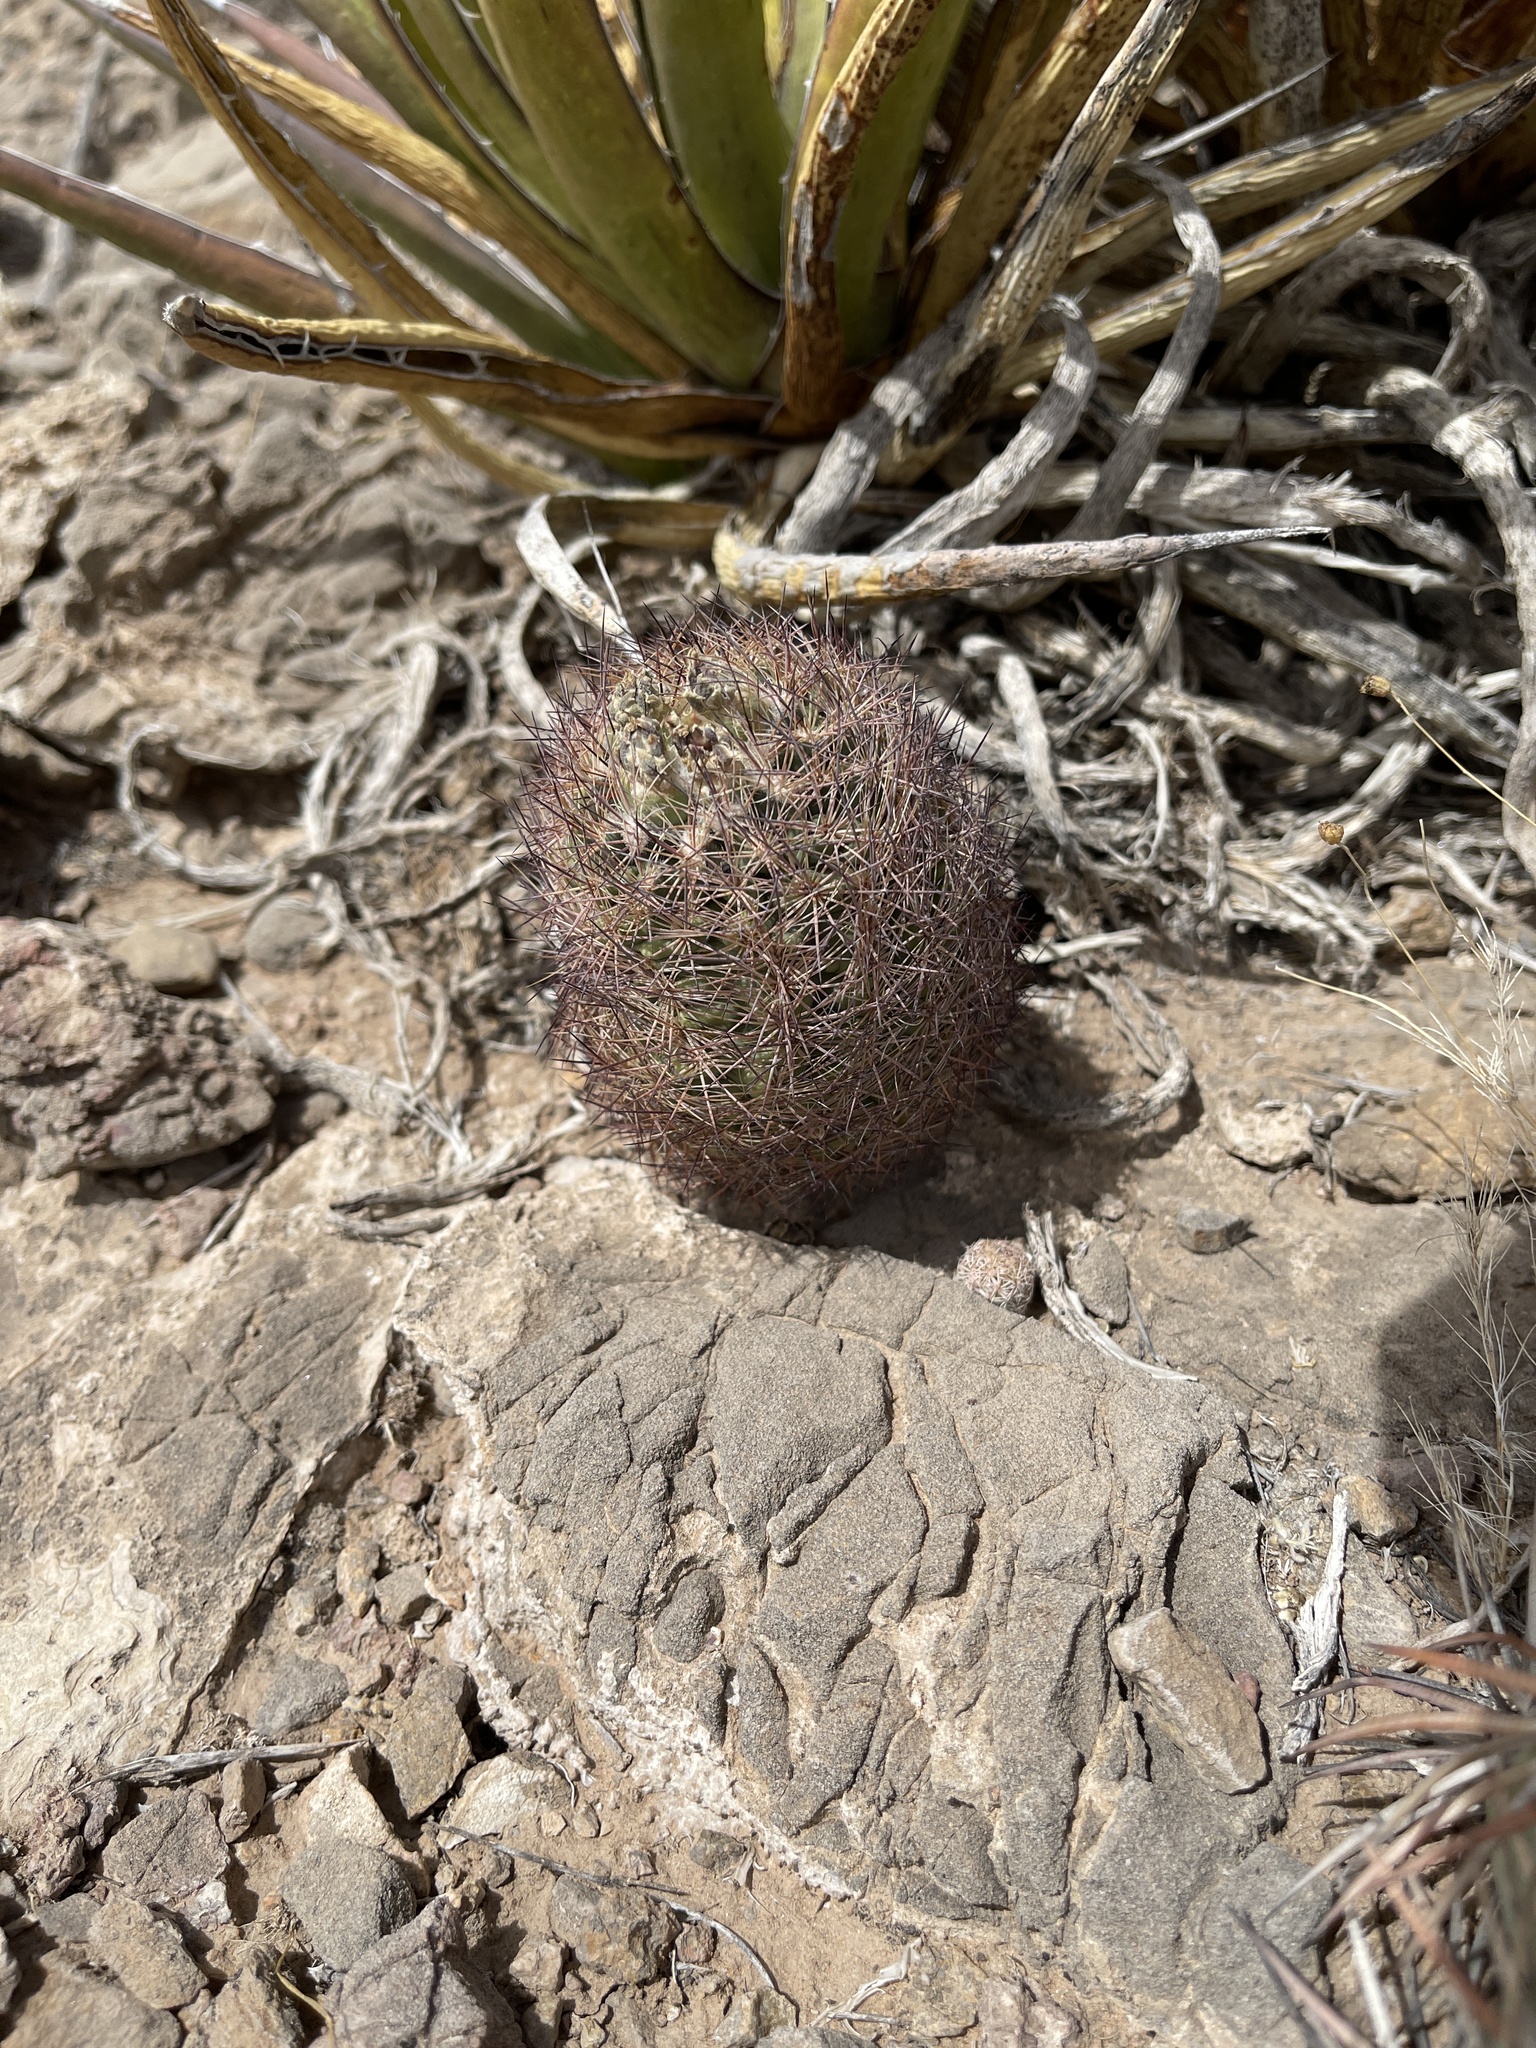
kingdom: Plantae
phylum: Tracheophyta
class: Magnoliopsida
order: Caryophyllales
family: Cactaceae
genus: Sclerocactus
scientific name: Sclerocactus intertextus
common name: White fish-hook cactus
